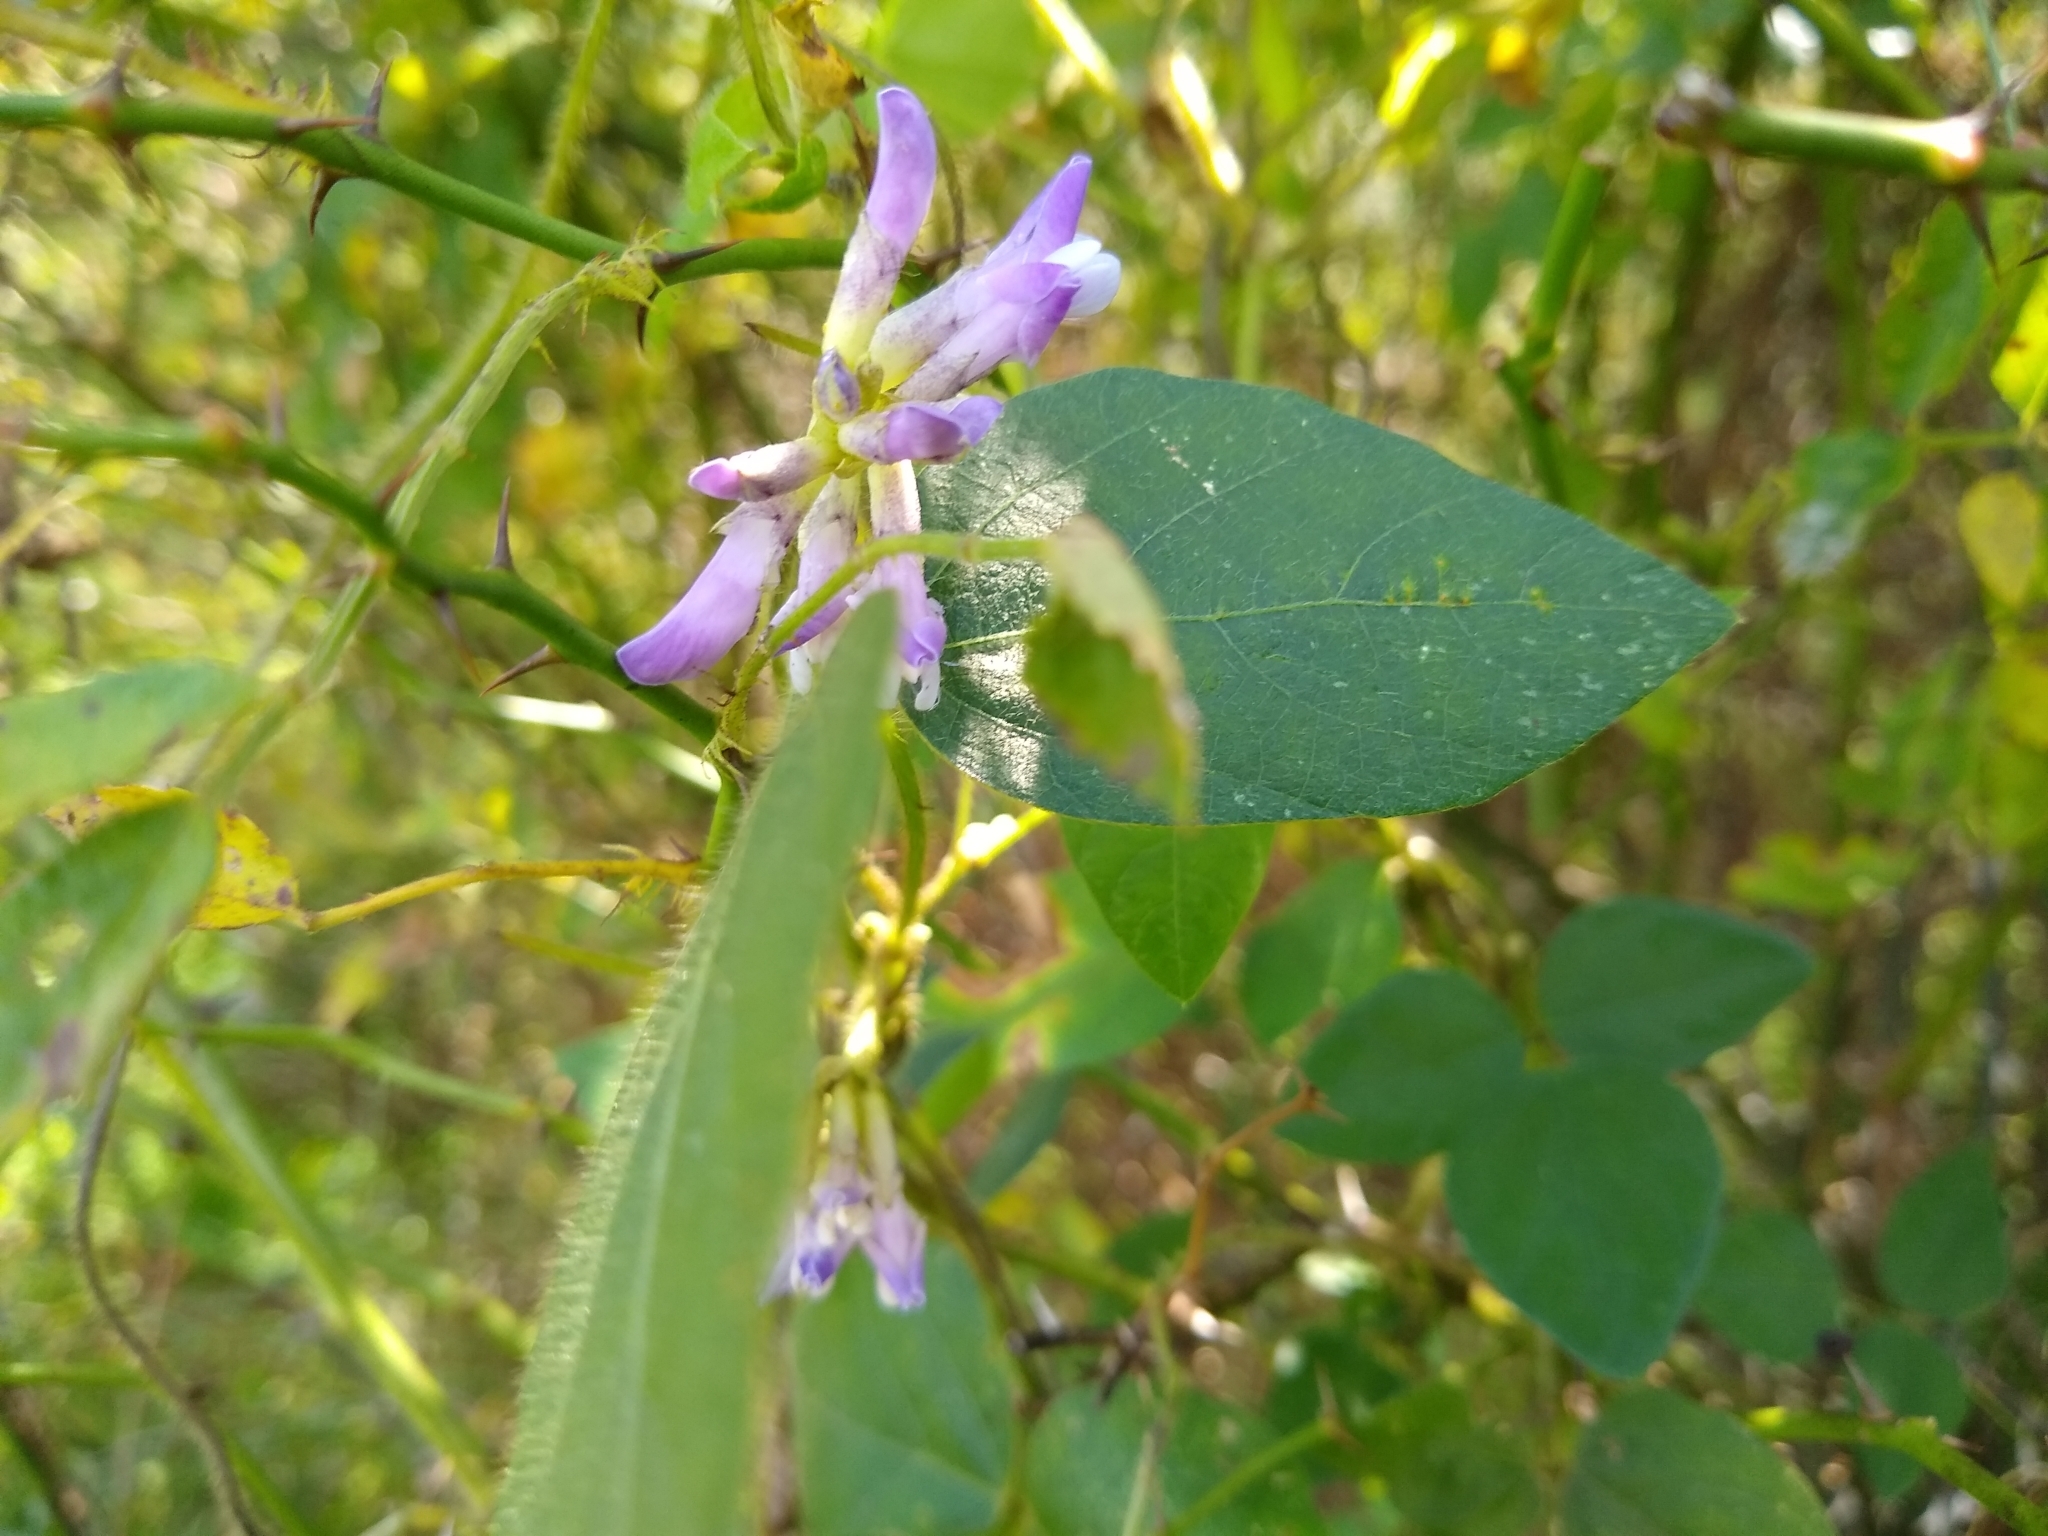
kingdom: Plantae
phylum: Tracheophyta
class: Magnoliopsida
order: Fabales
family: Fabaceae
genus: Amphicarpaea
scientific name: Amphicarpaea bracteata
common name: American hog peanut
